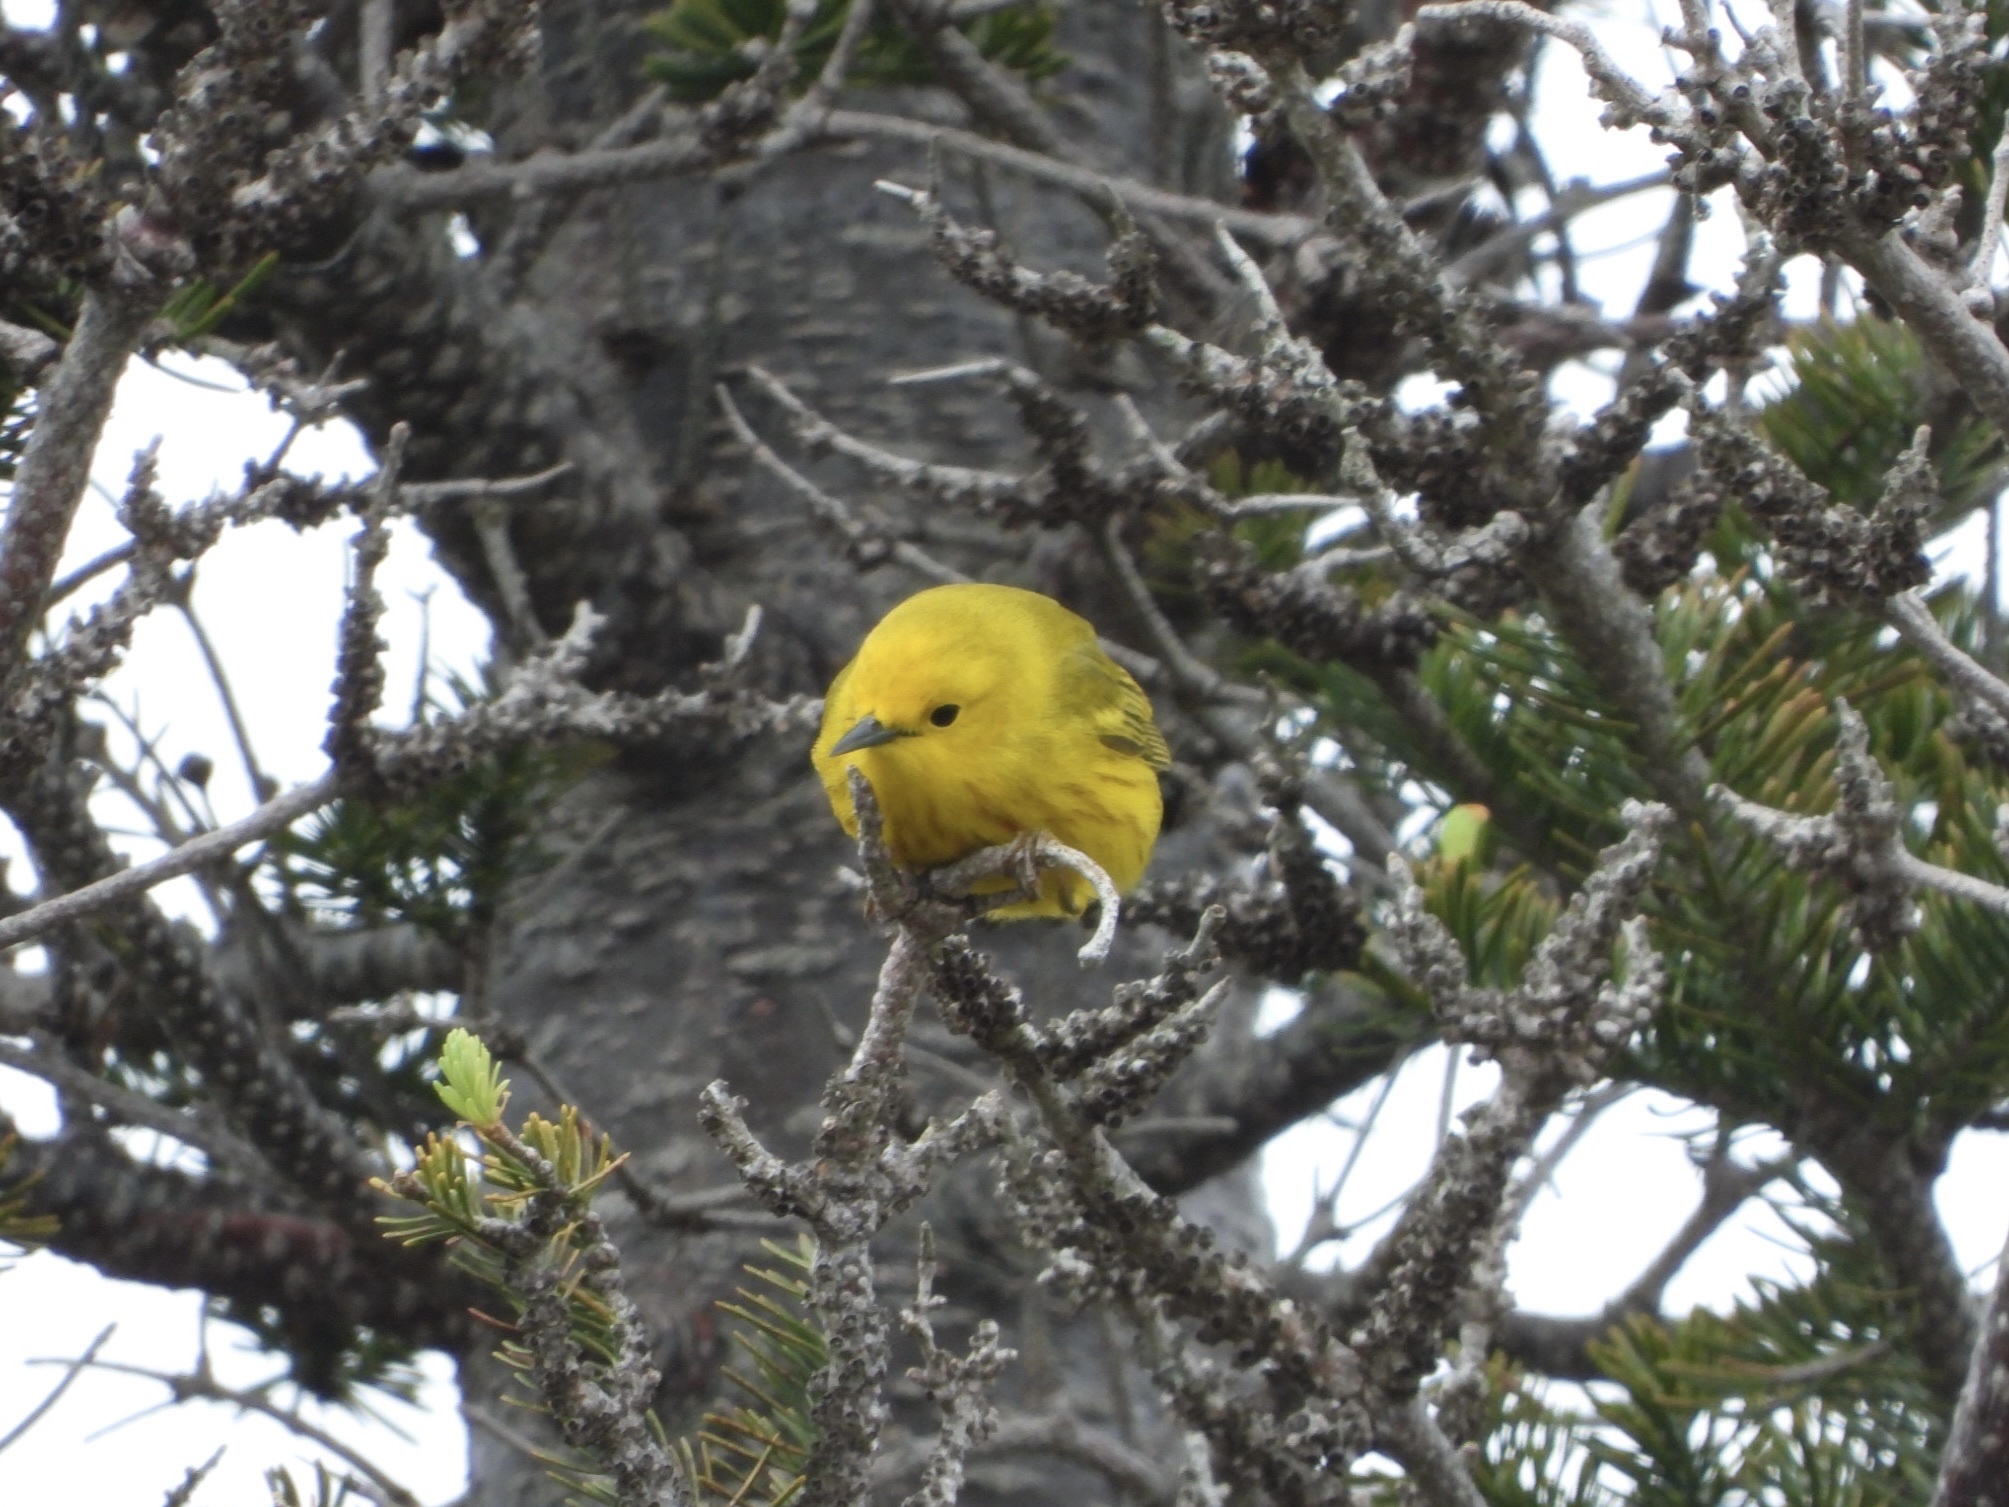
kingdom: Animalia
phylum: Chordata
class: Aves
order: Passeriformes
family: Parulidae
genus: Setophaga
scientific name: Setophaga petechia
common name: Yellow warbler
